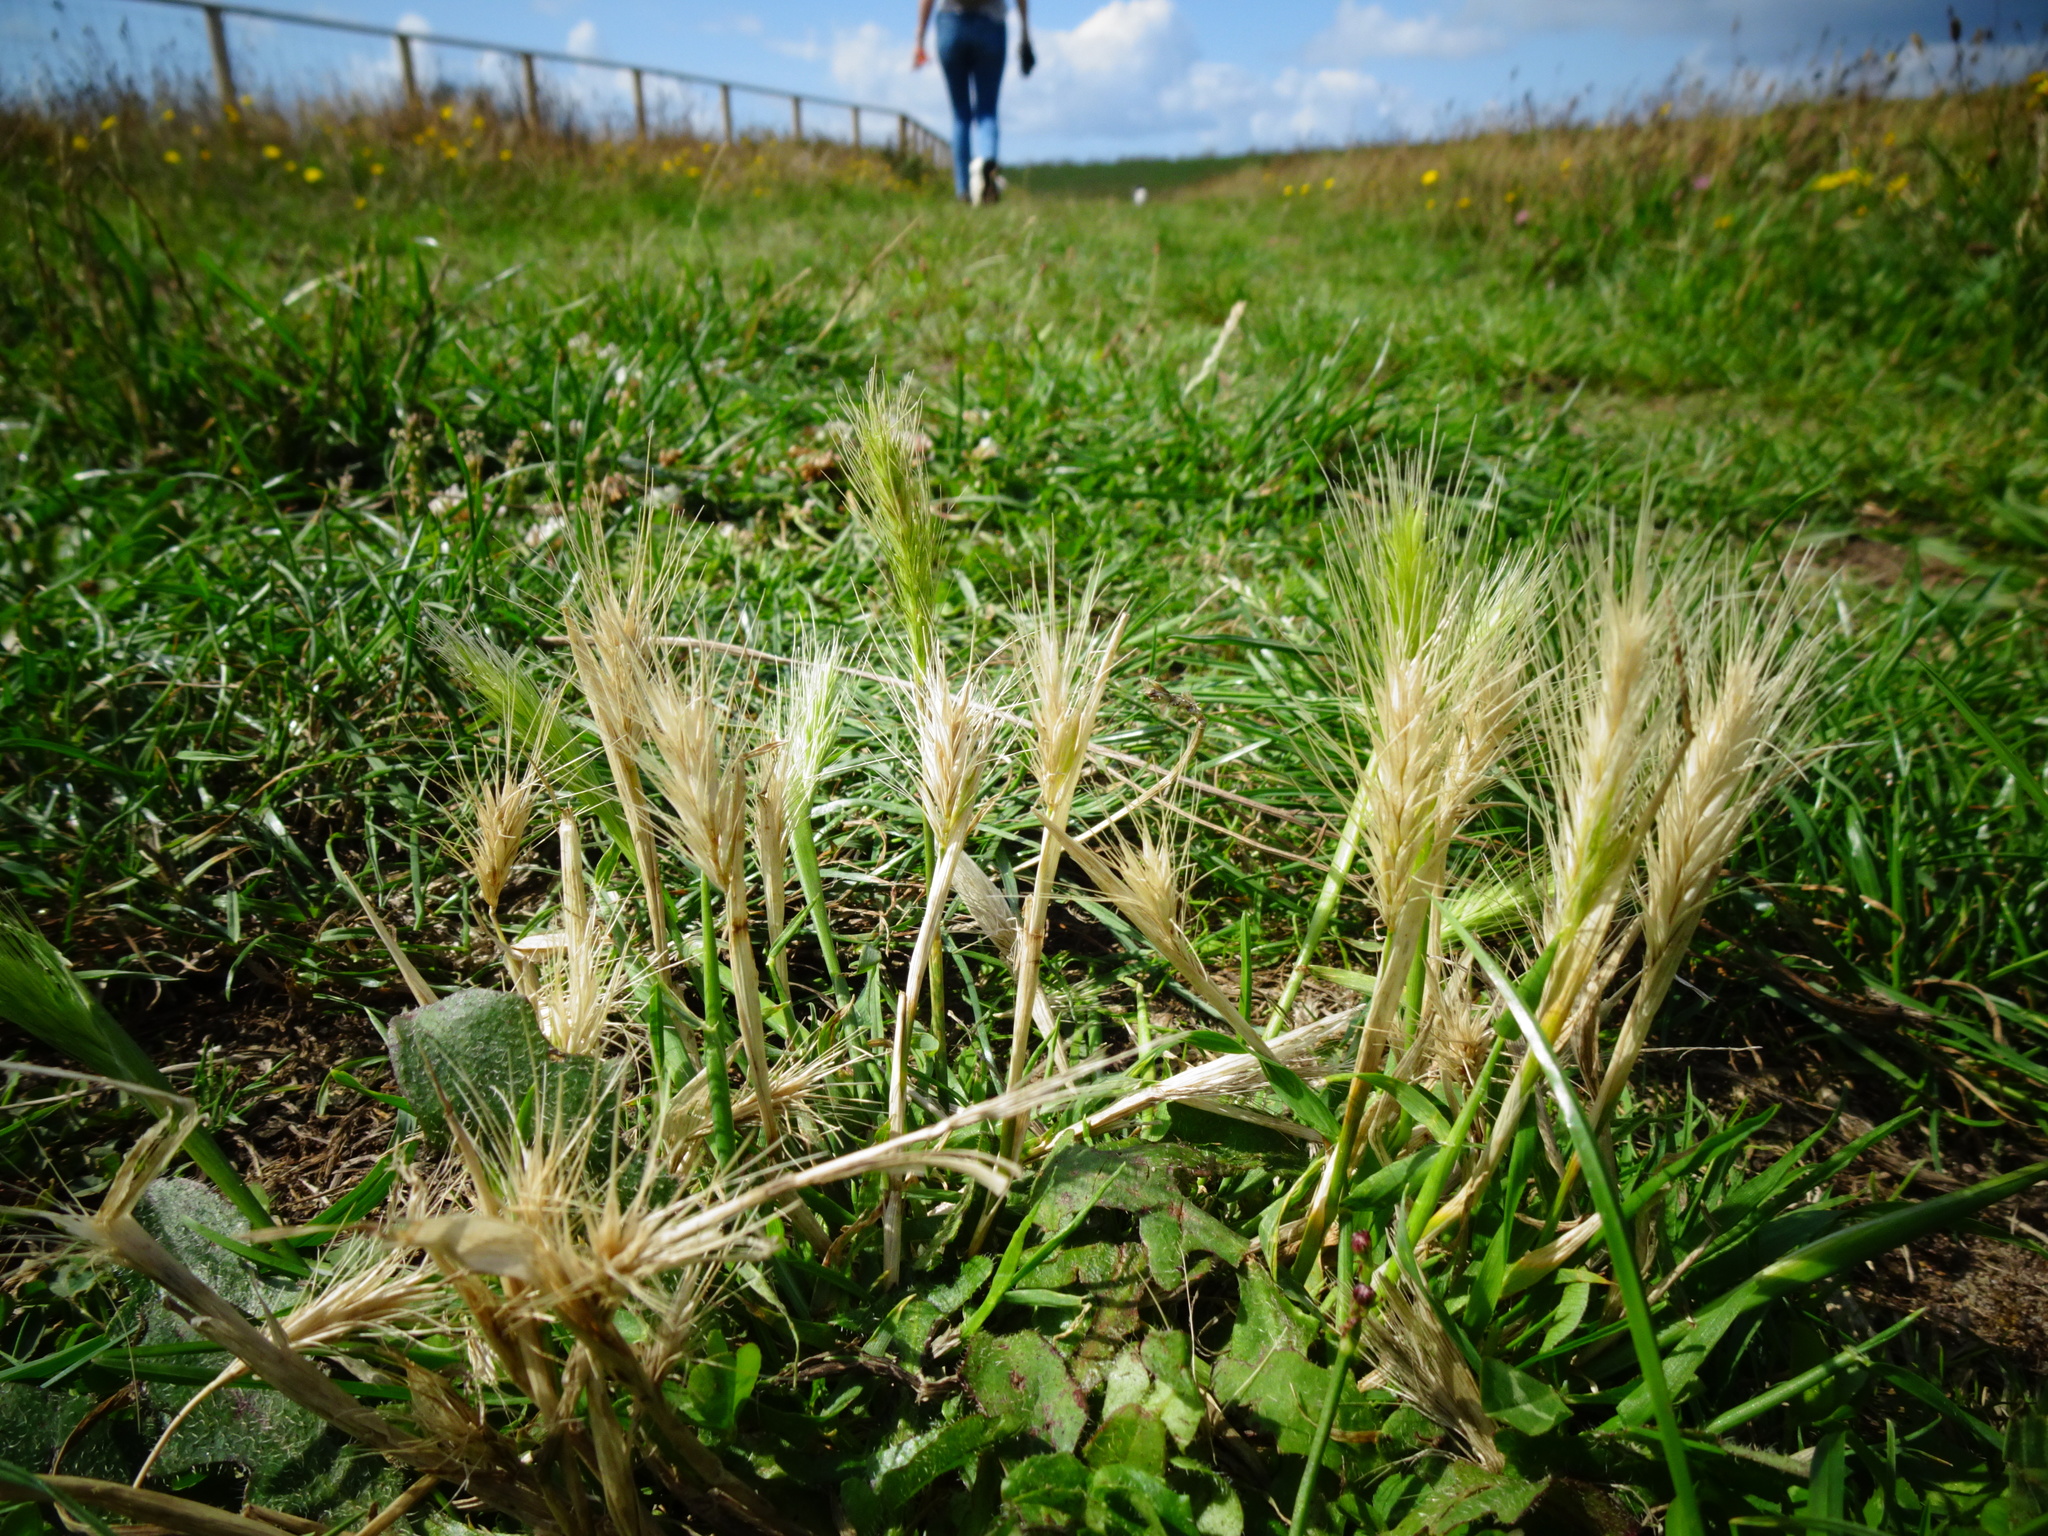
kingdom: Plantae
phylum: Tracheophyta
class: Liliopsida
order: Poales
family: Poaceae
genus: Hordeum
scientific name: Hordeum murinum
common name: Wall barley
